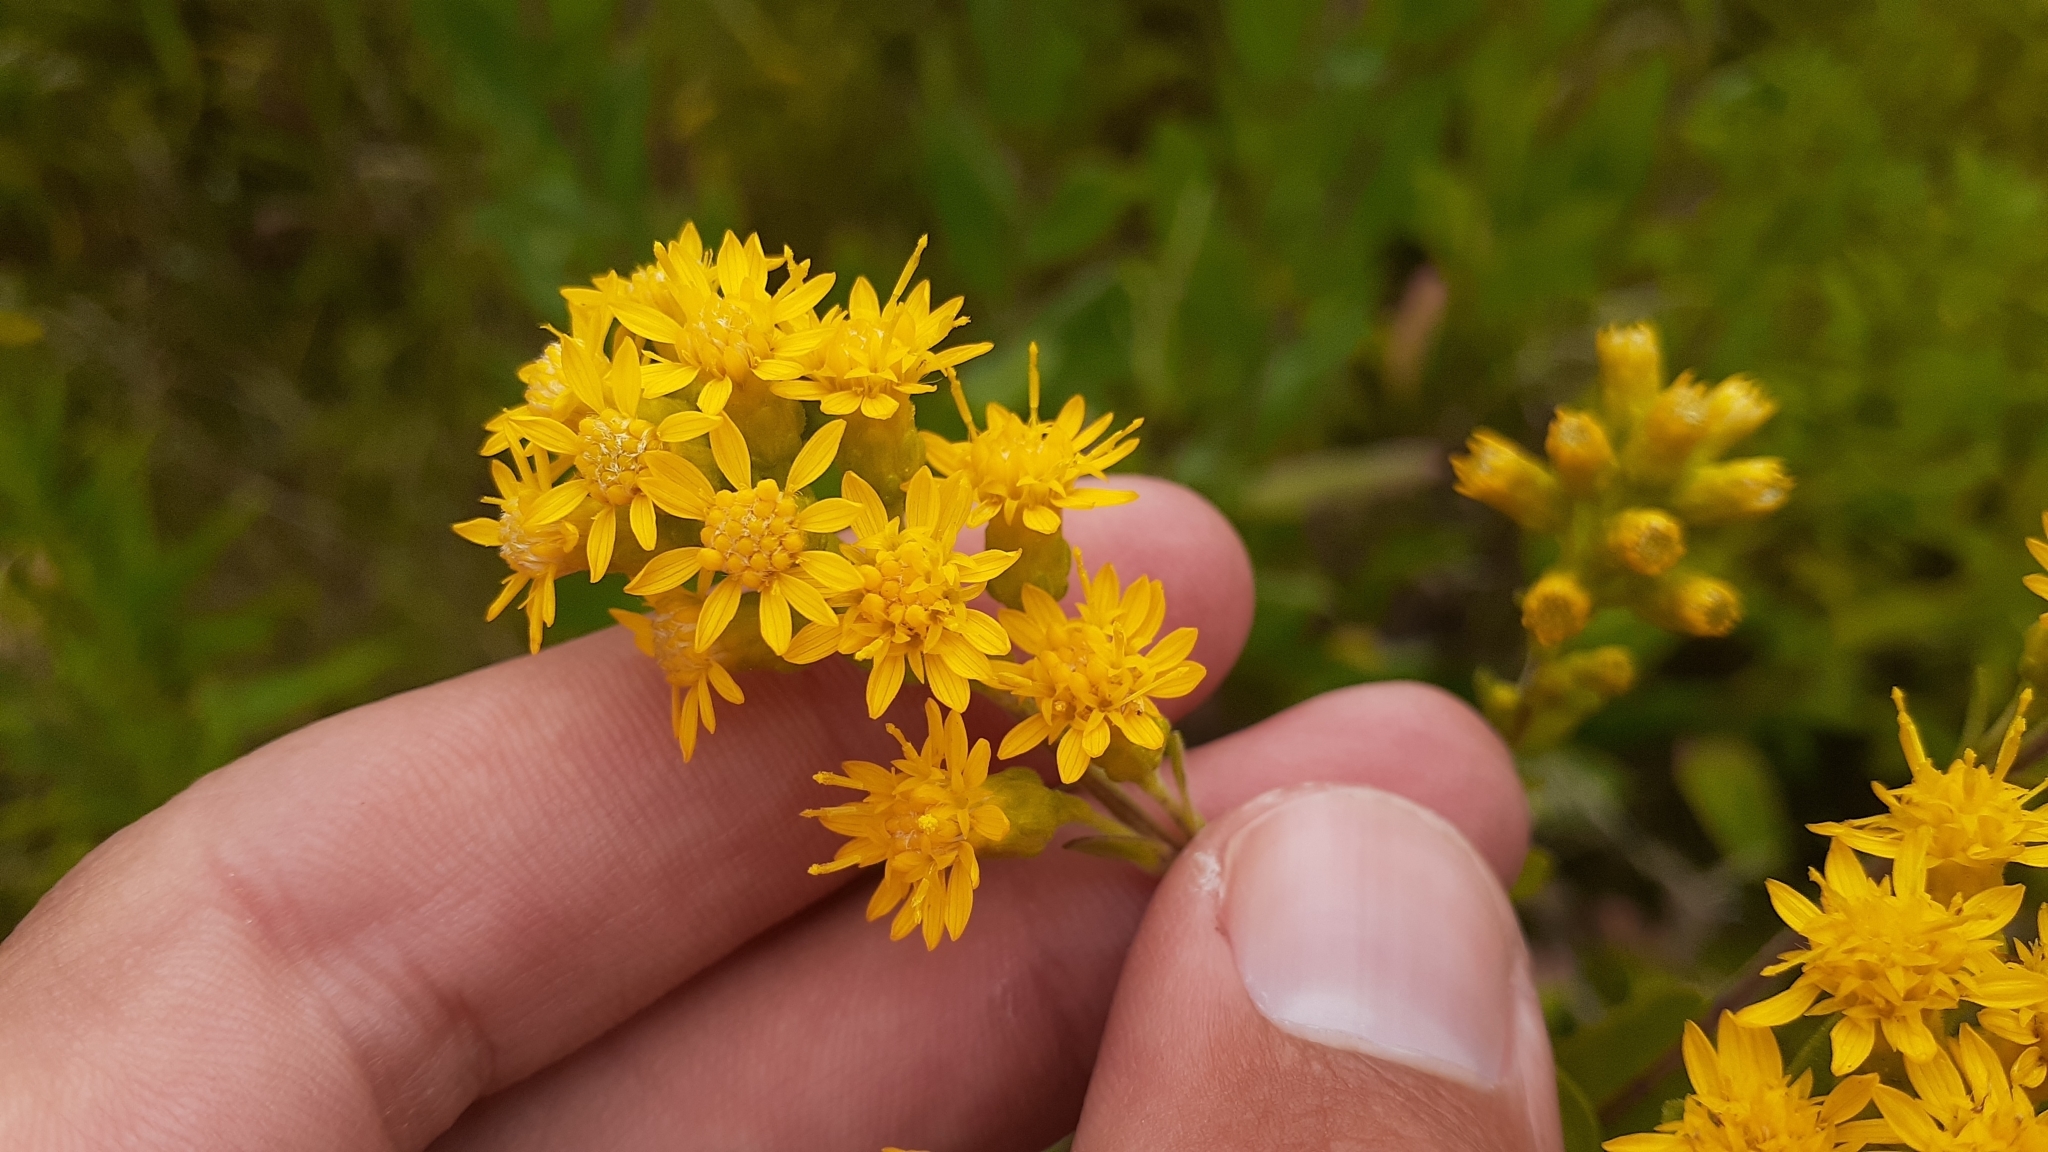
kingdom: Plantae
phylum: Tracheophyta
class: Magnoliopsida
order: Asterales
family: Asteraceae
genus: Solidago
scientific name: Solidago rigida
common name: Rigid goldenrod
